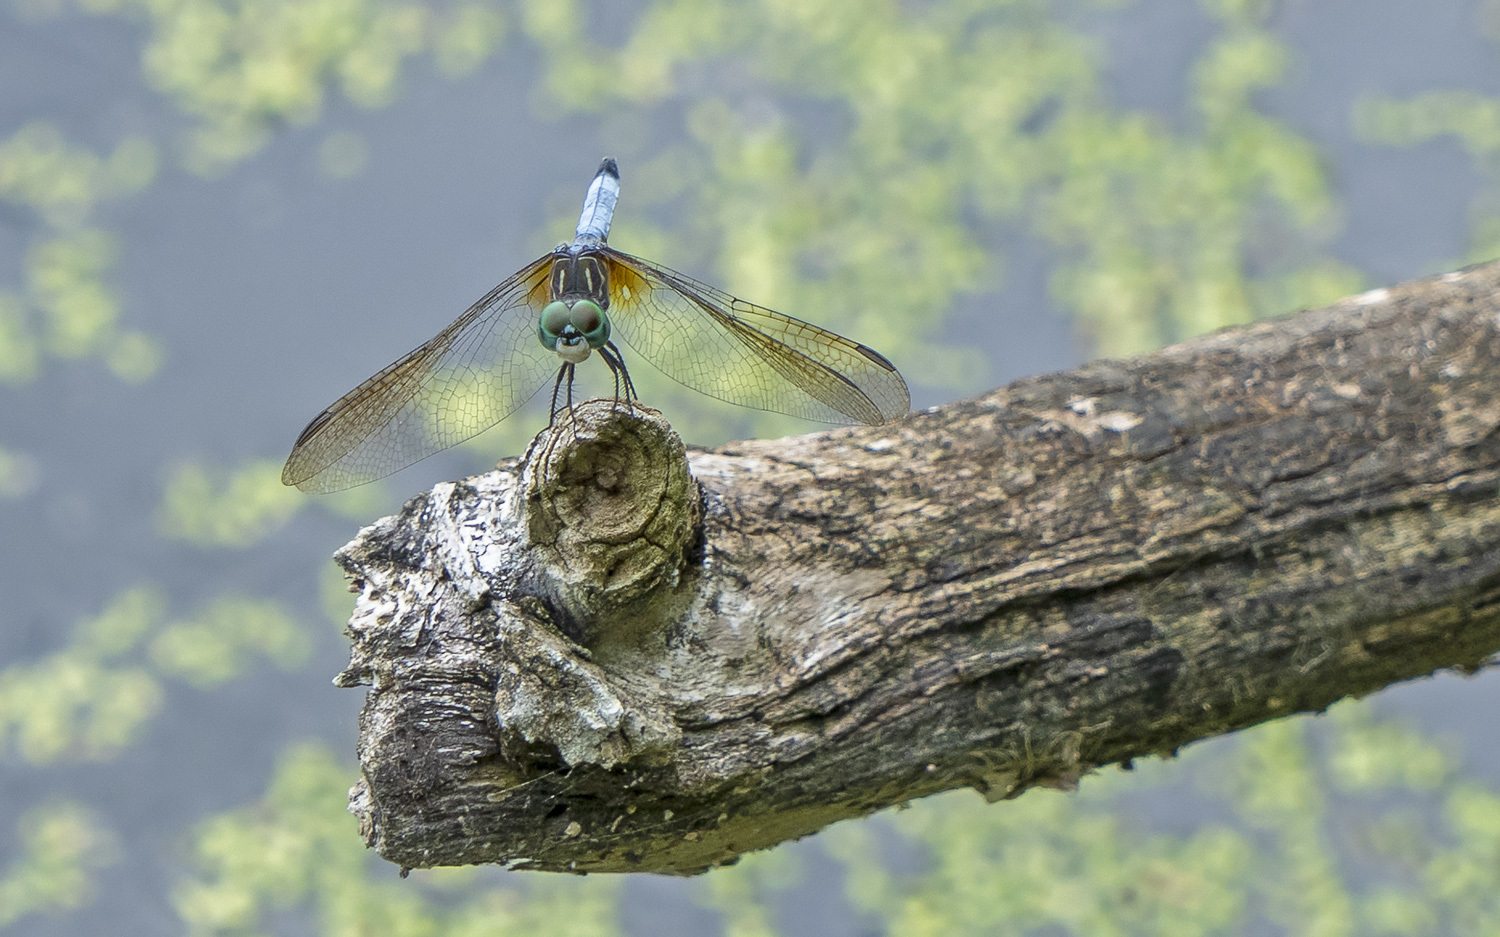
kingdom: Animalia
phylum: Arthropoda
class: Insecta
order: Odonata
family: Libellulidae
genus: Pachydiplax
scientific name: Pachydiplax longipennis
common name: Blue dasher
